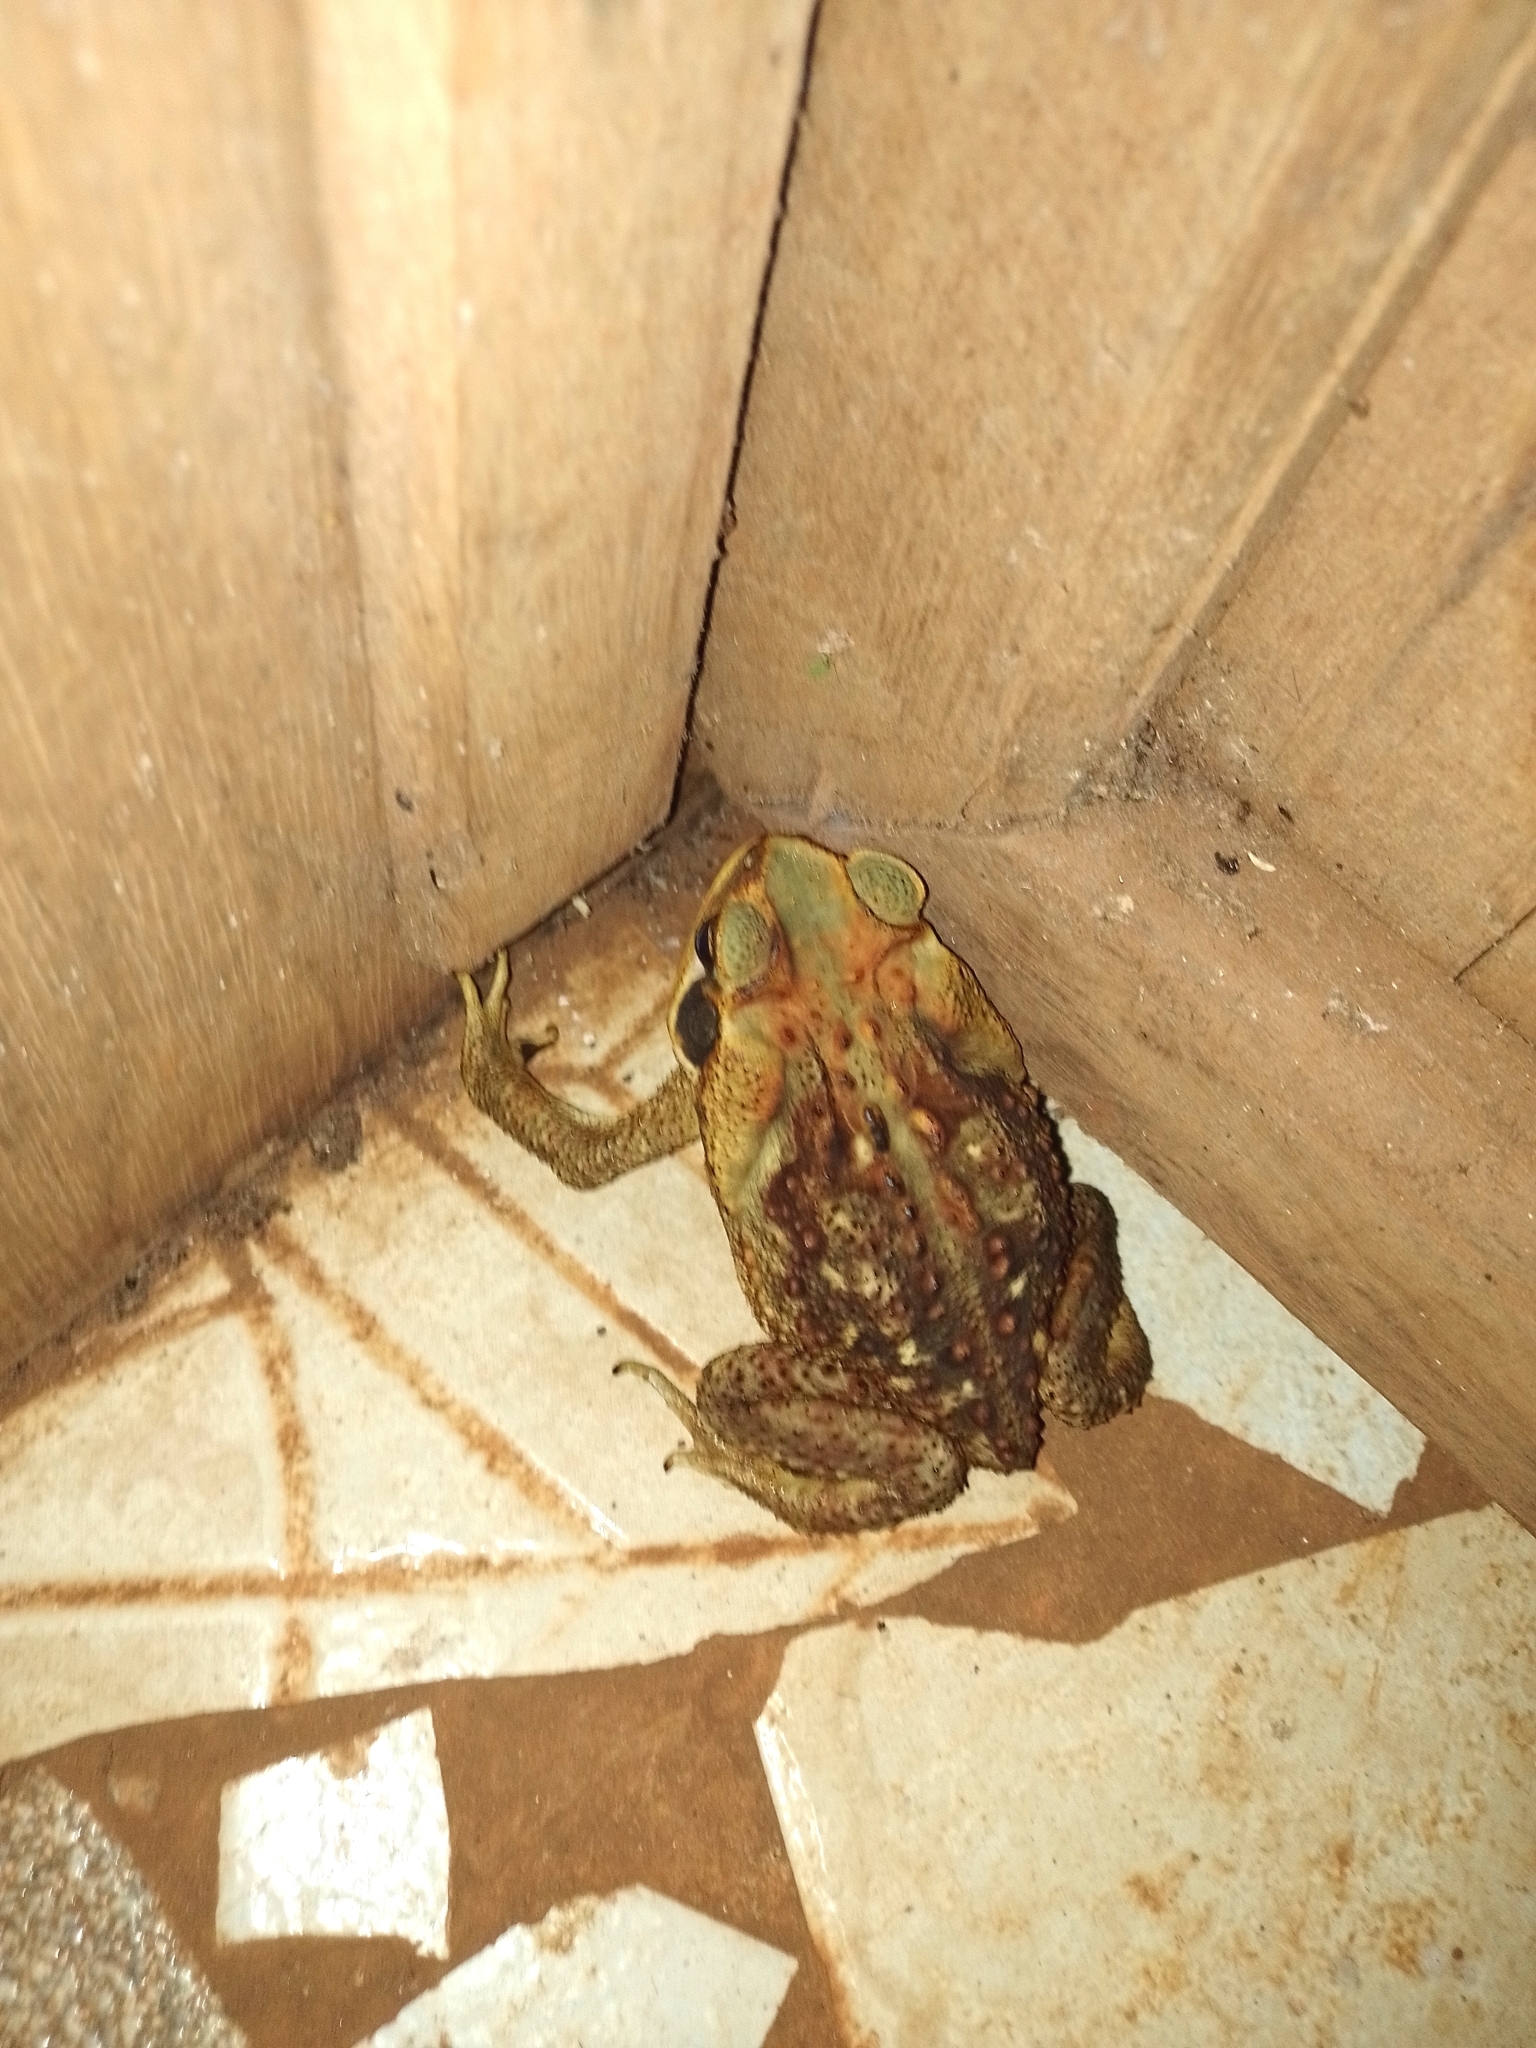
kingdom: Animalia
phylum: Chordata
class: Amphibia
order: Anura
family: Bufonidae
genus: Rhinella
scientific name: Rhinella diptycha
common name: Cope's toad
